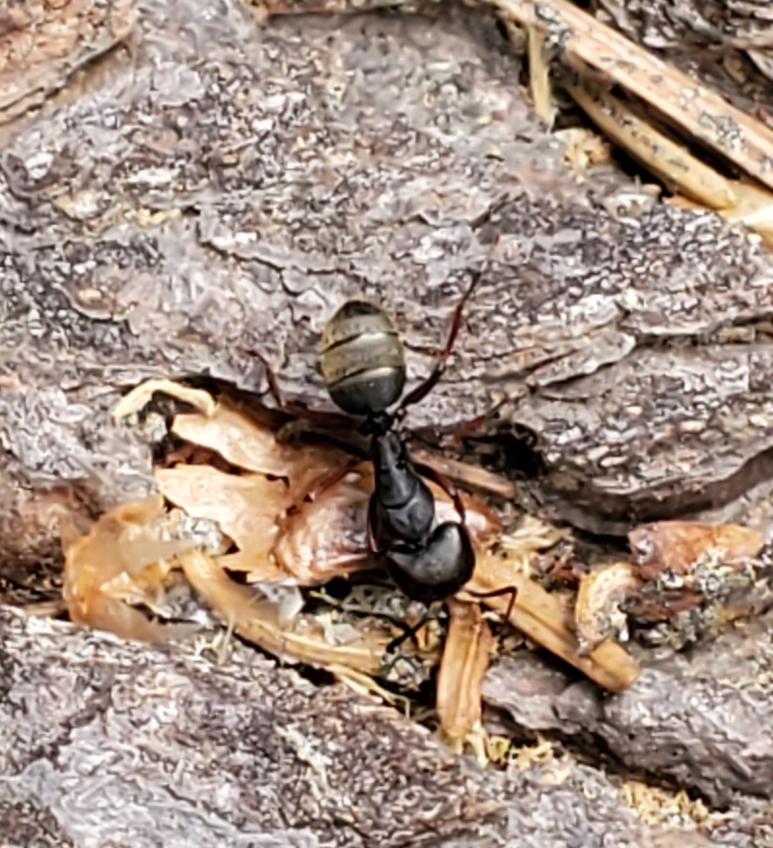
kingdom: Animalia
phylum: Arthropoda
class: Insecta
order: Hymenoptera
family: Formicidae
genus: Camponotus
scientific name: Camponotus modoc
